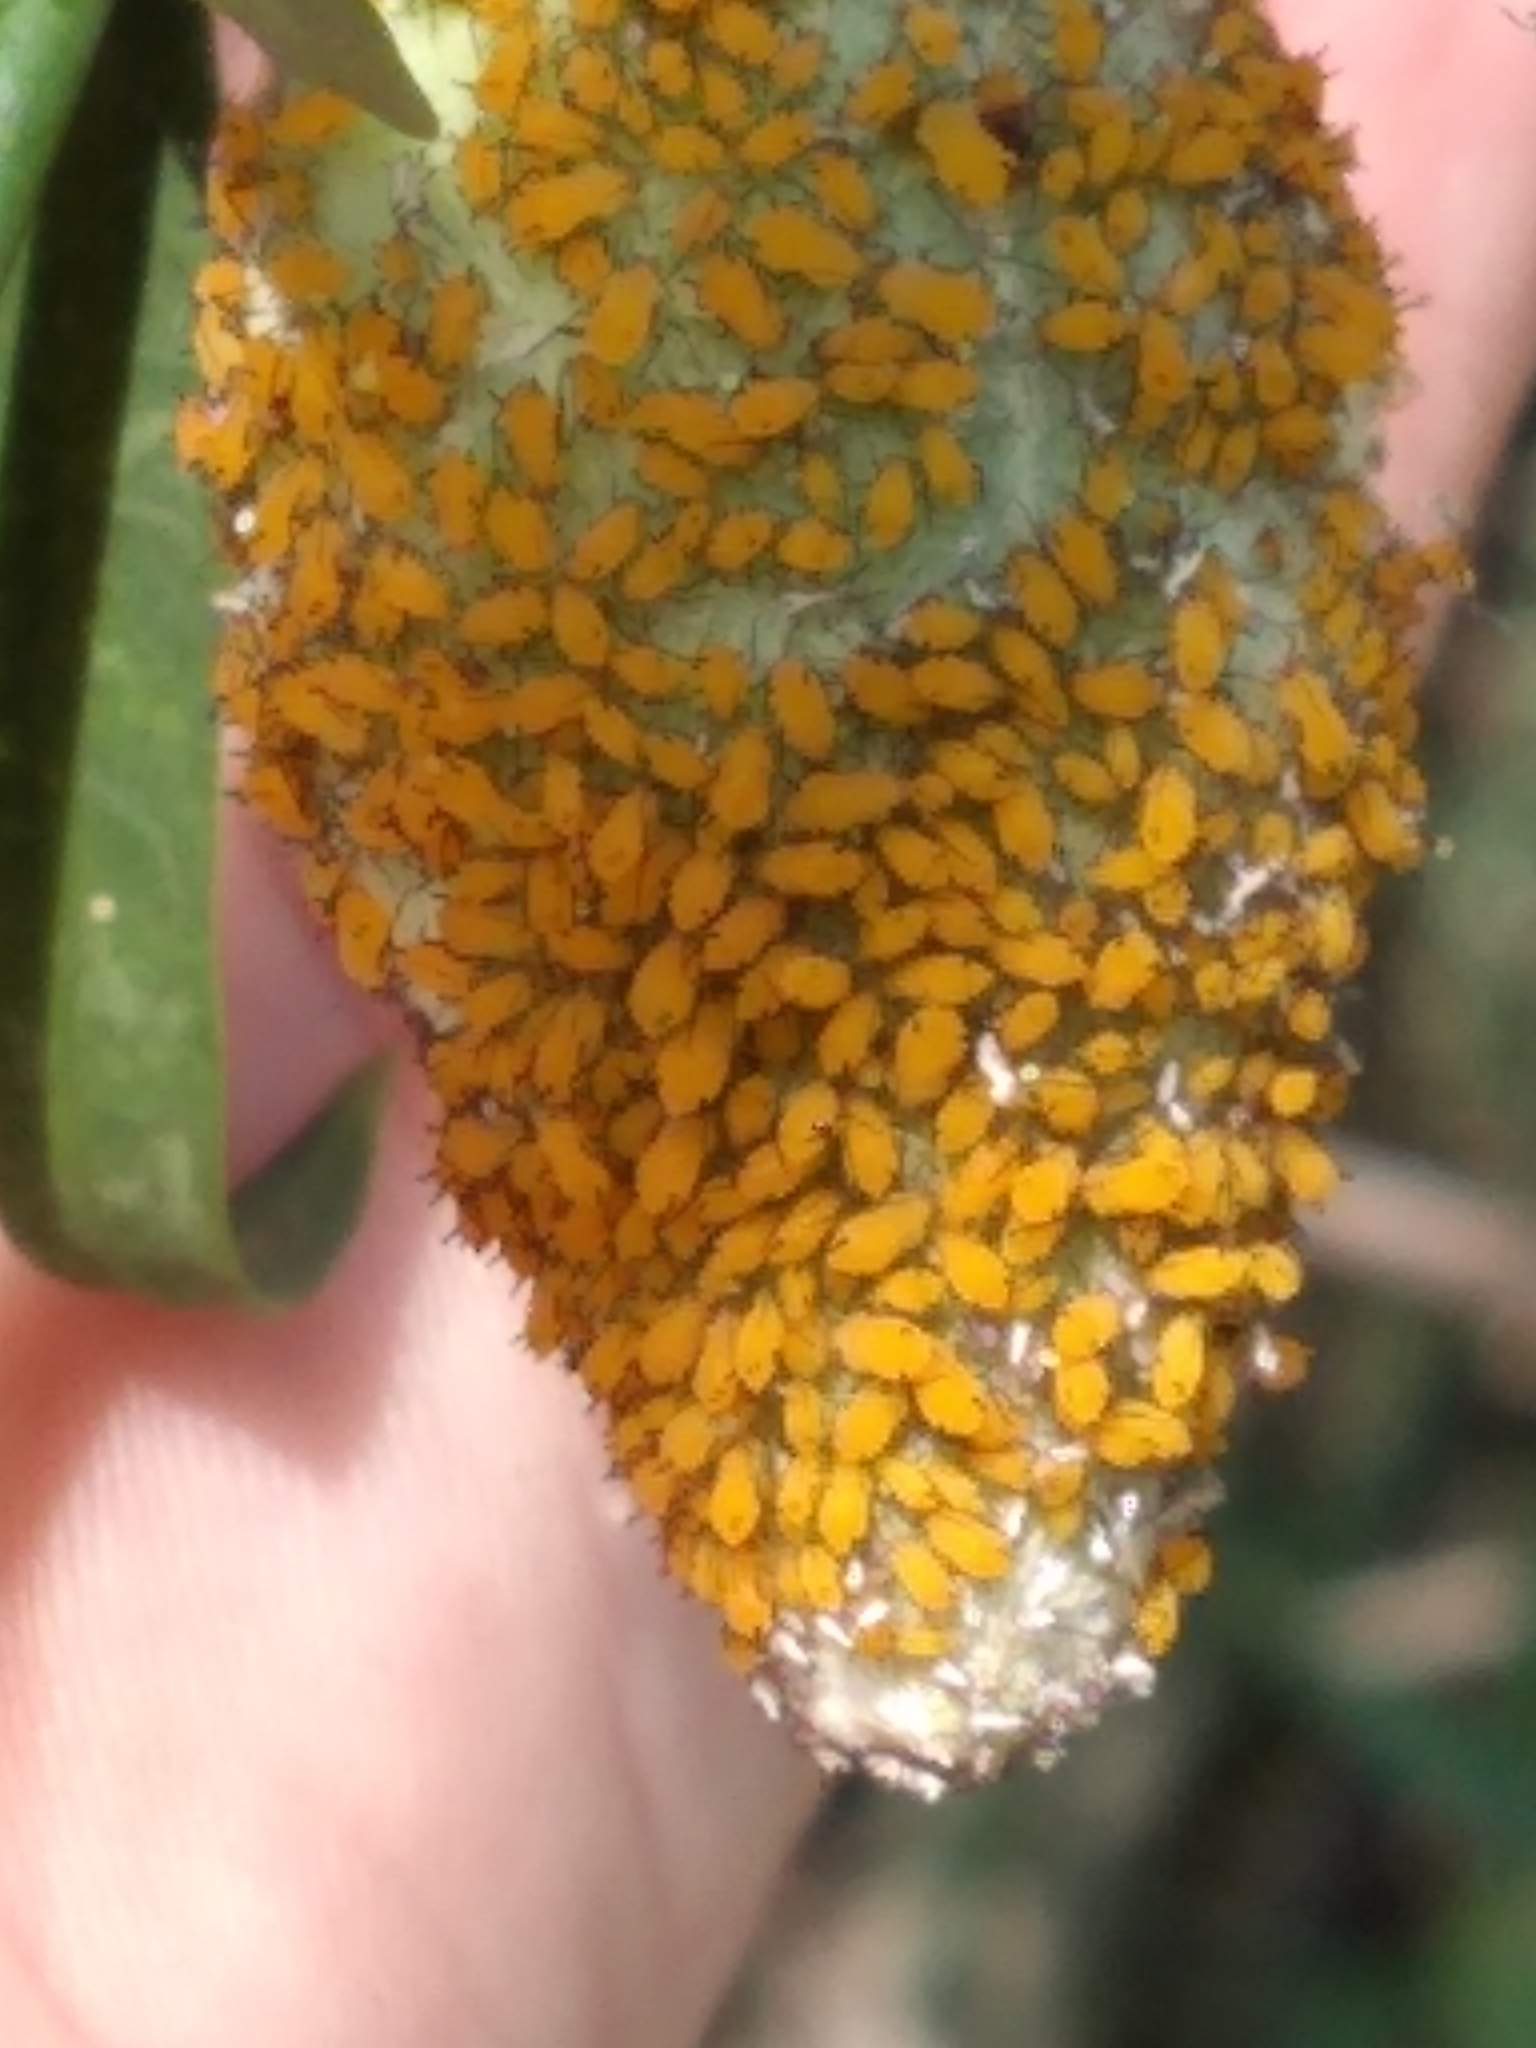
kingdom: Animalia
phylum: Arthropoda
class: Insecta
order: Hemiptera
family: Aphididae
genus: Aphis
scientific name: Aphis nerii
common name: Oleander aphid
